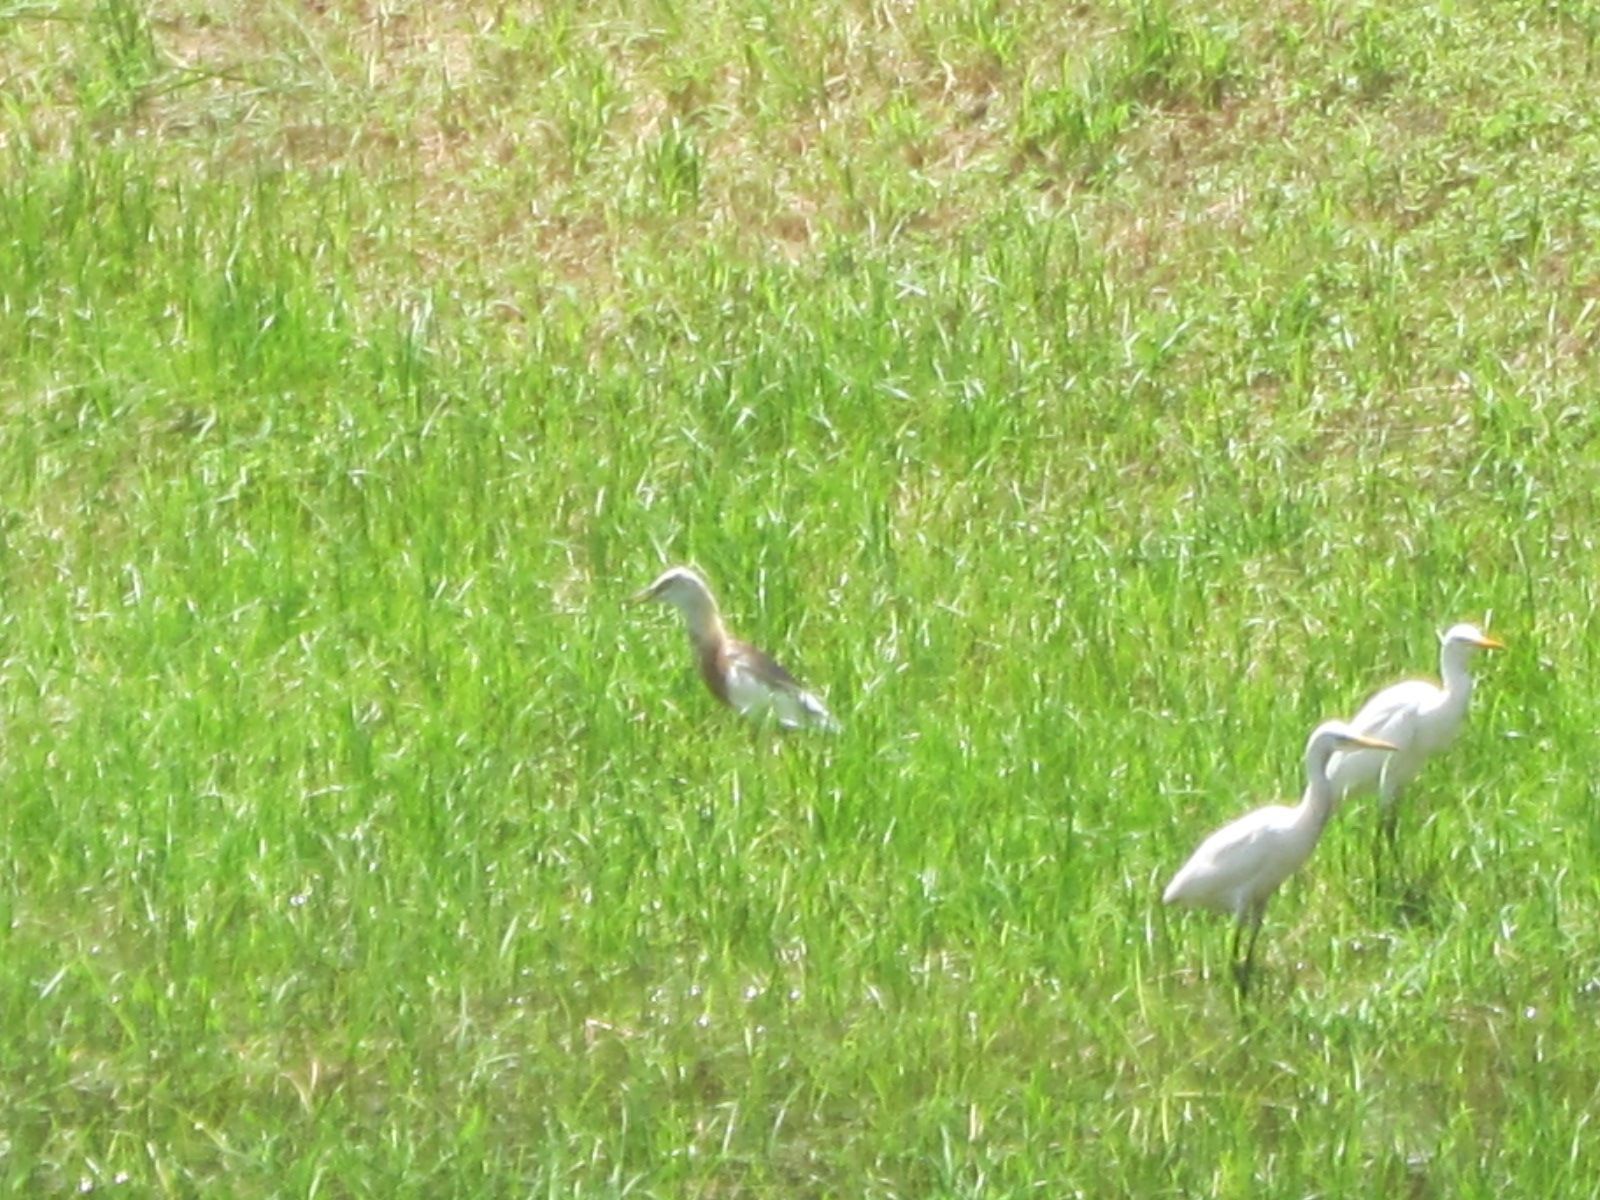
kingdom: Animalia
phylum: Chordata
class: Aves
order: Pelecaniformes
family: Ardeidae
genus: Ardeola
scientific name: Ardeola speciosa
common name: Javan pond heron
